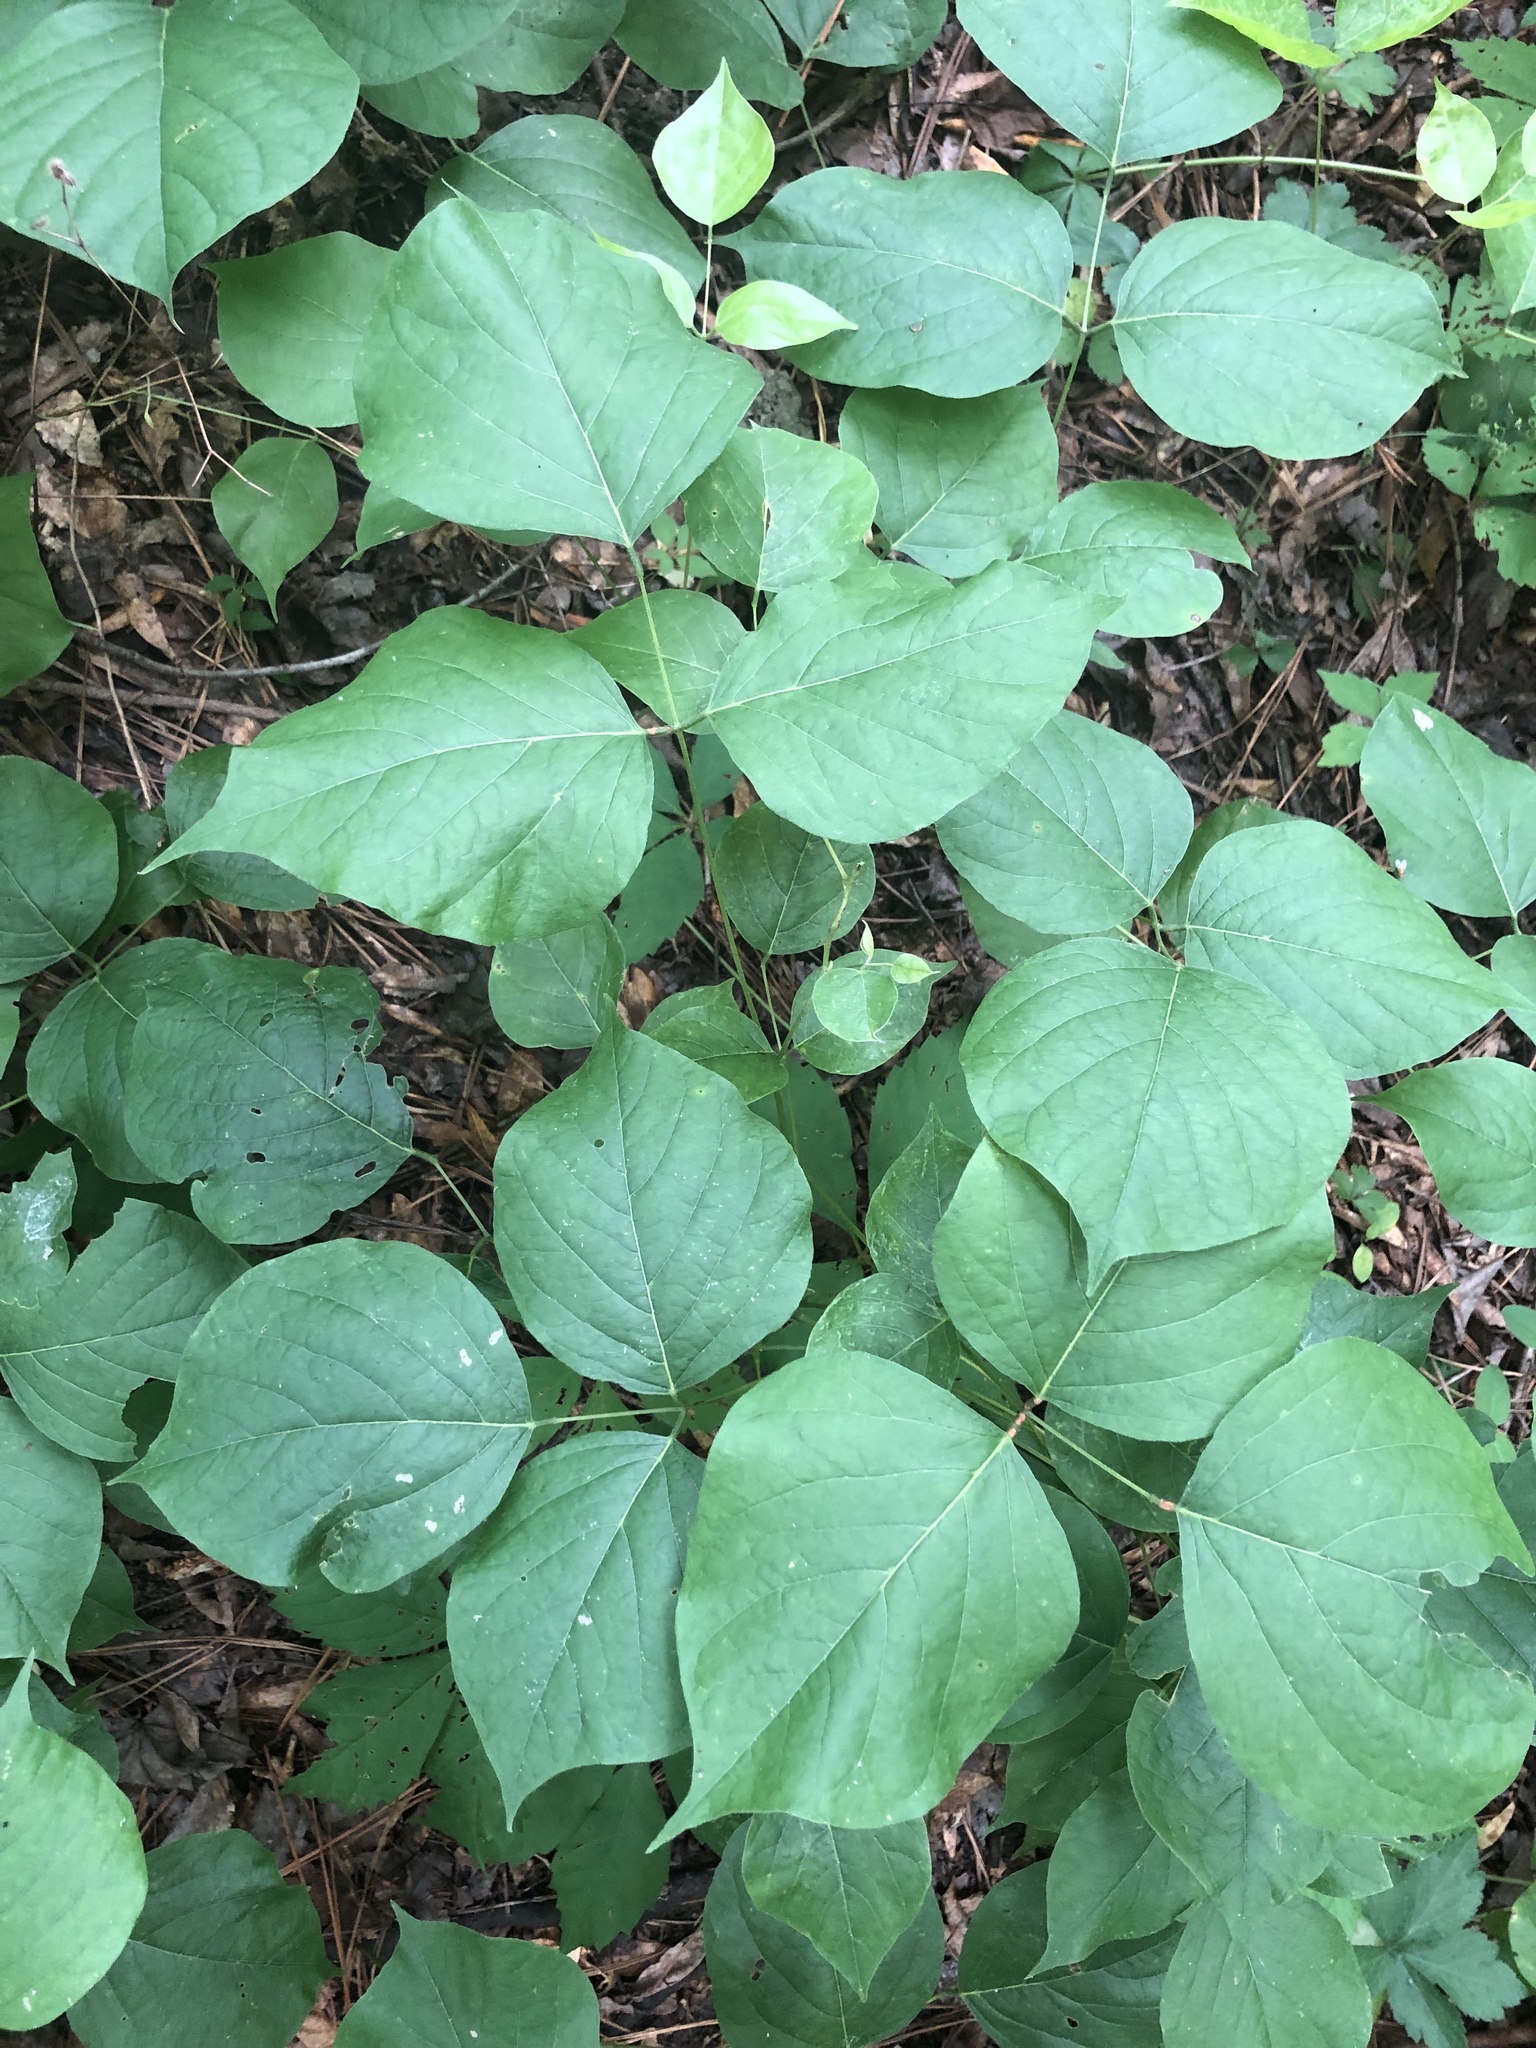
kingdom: Plantae
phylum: Tracheophyta
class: Magnoliopsida
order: Fabales
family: Fabaceae
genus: Lackeya
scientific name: Lackeya multiflora
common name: Boykin's clusterpea
